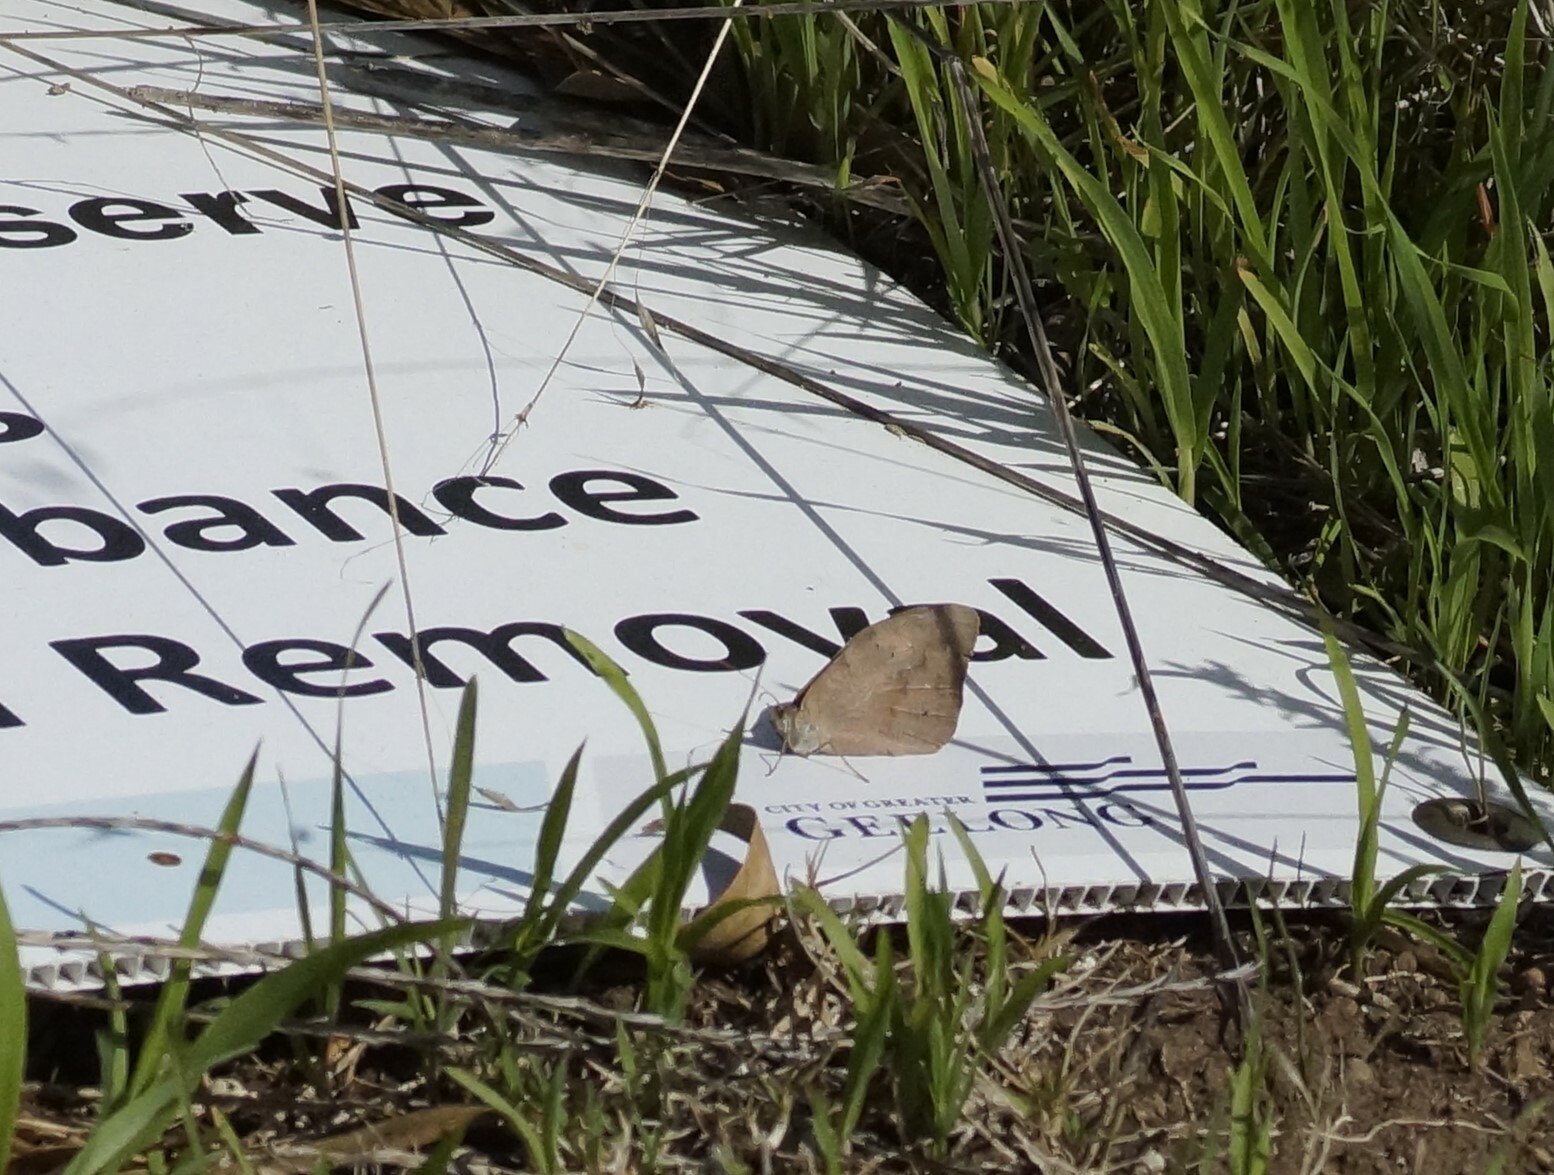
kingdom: Animalia
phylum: Arthropoda
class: Insecta
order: Lepidoptera
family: Nymphalidae
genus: Heteronympha
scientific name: Heteronympha merope
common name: Common brown
